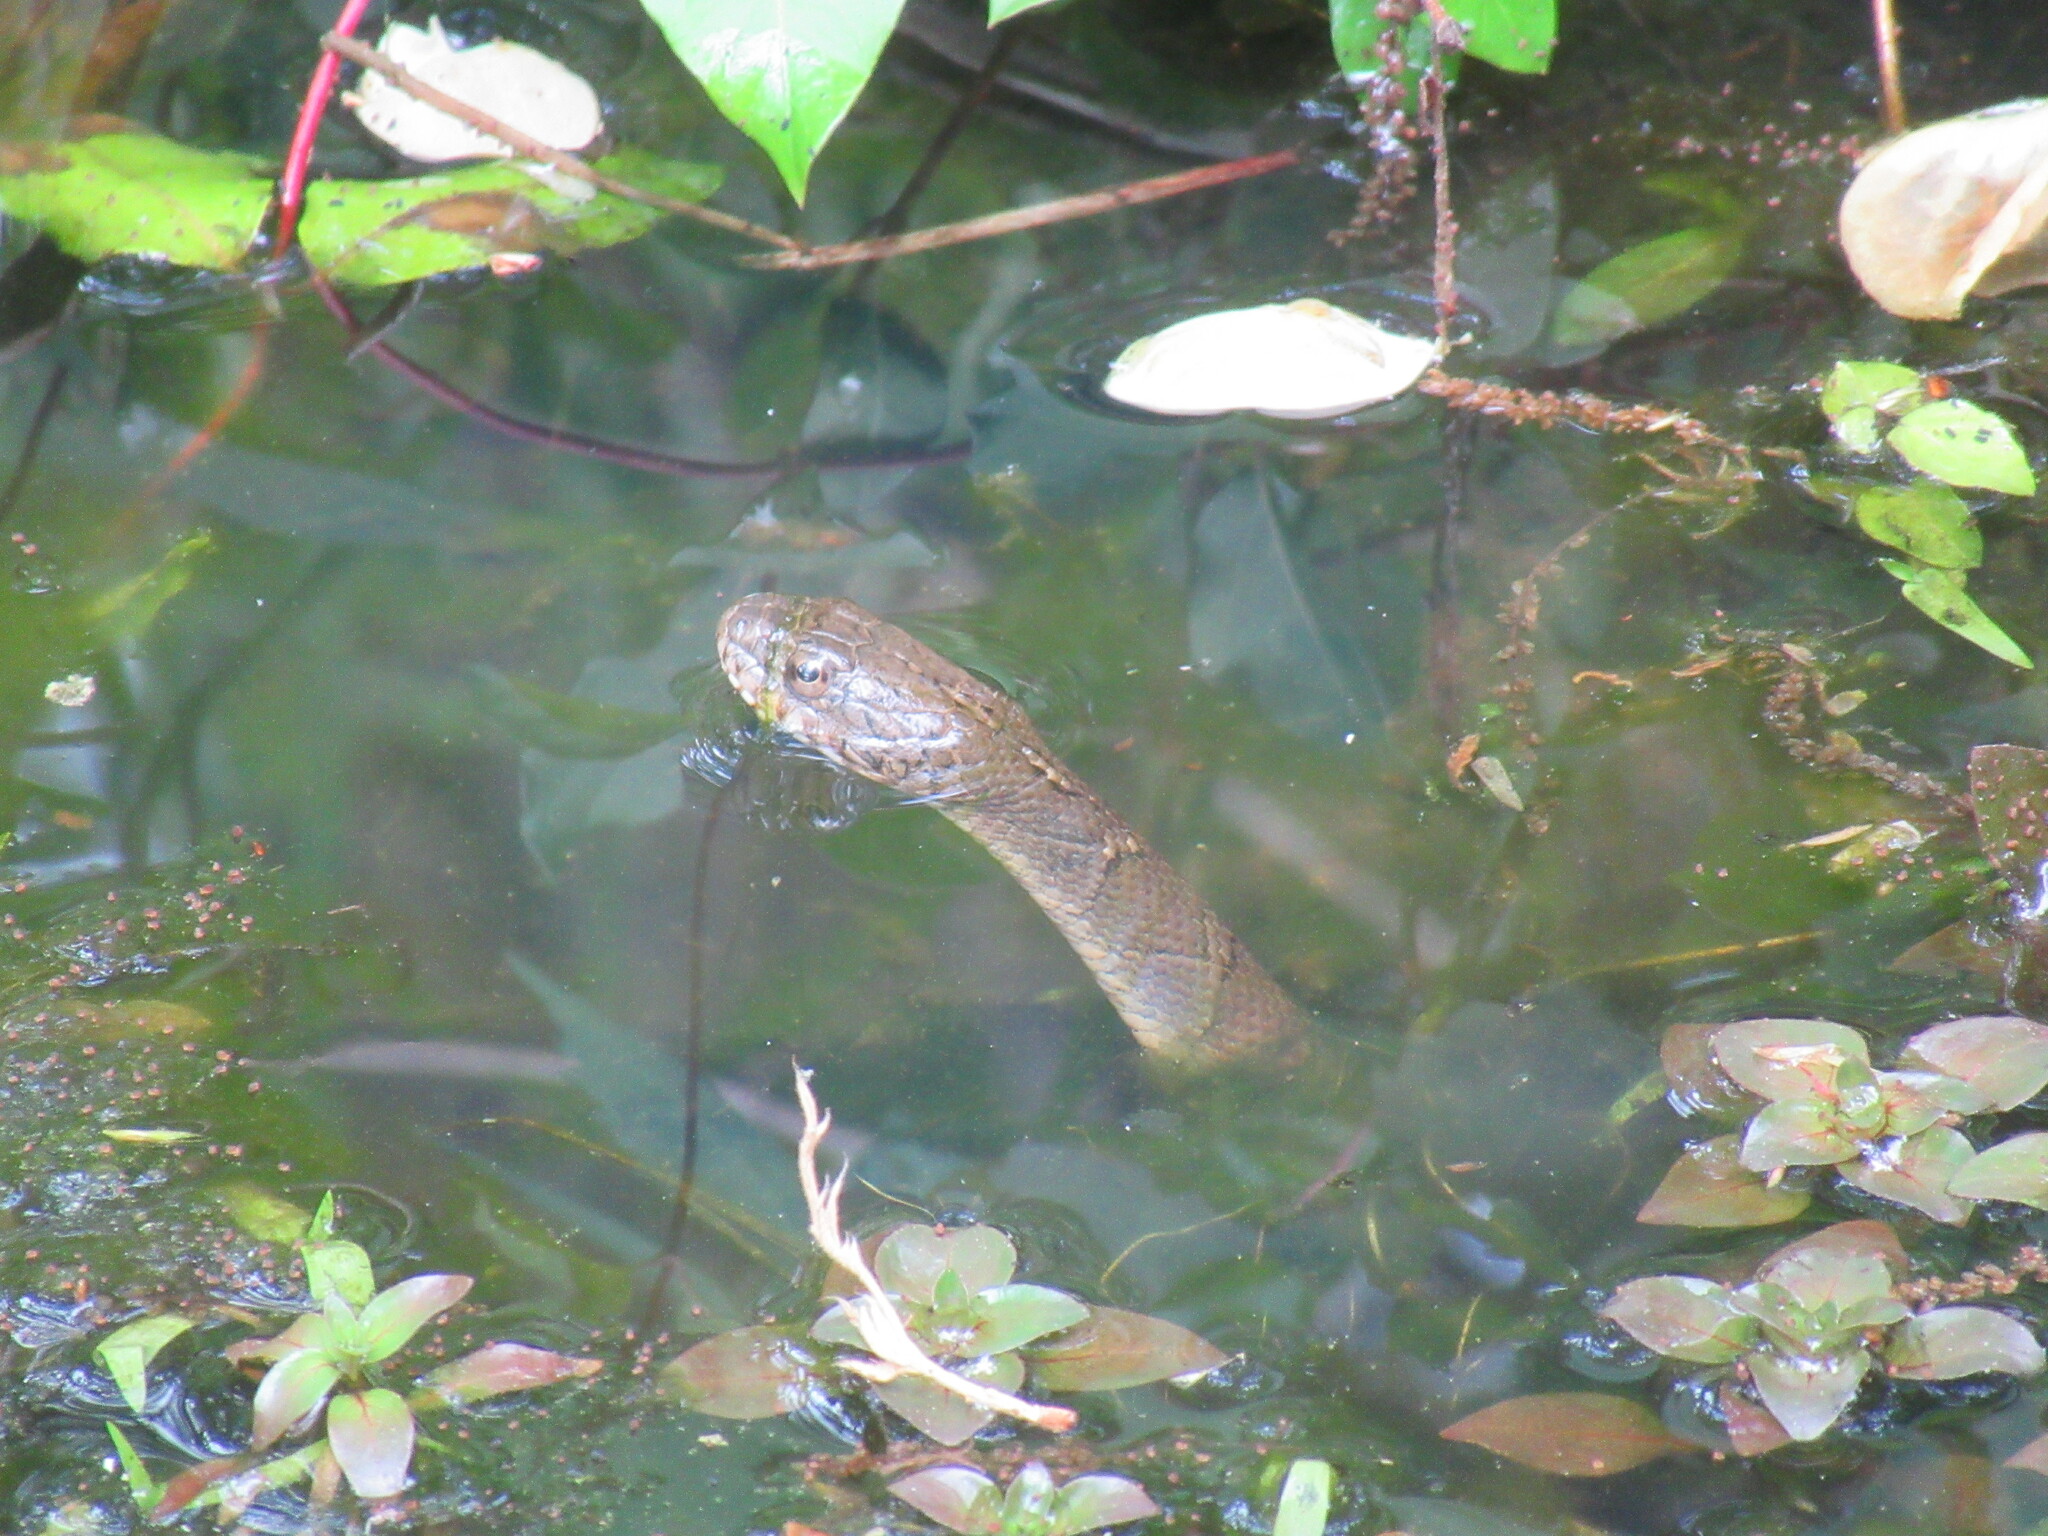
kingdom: Animalia
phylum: Chordata
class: Squamata
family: Colubridae
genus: Nerodia
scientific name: Nerodia sipedon
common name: Northern water snake
